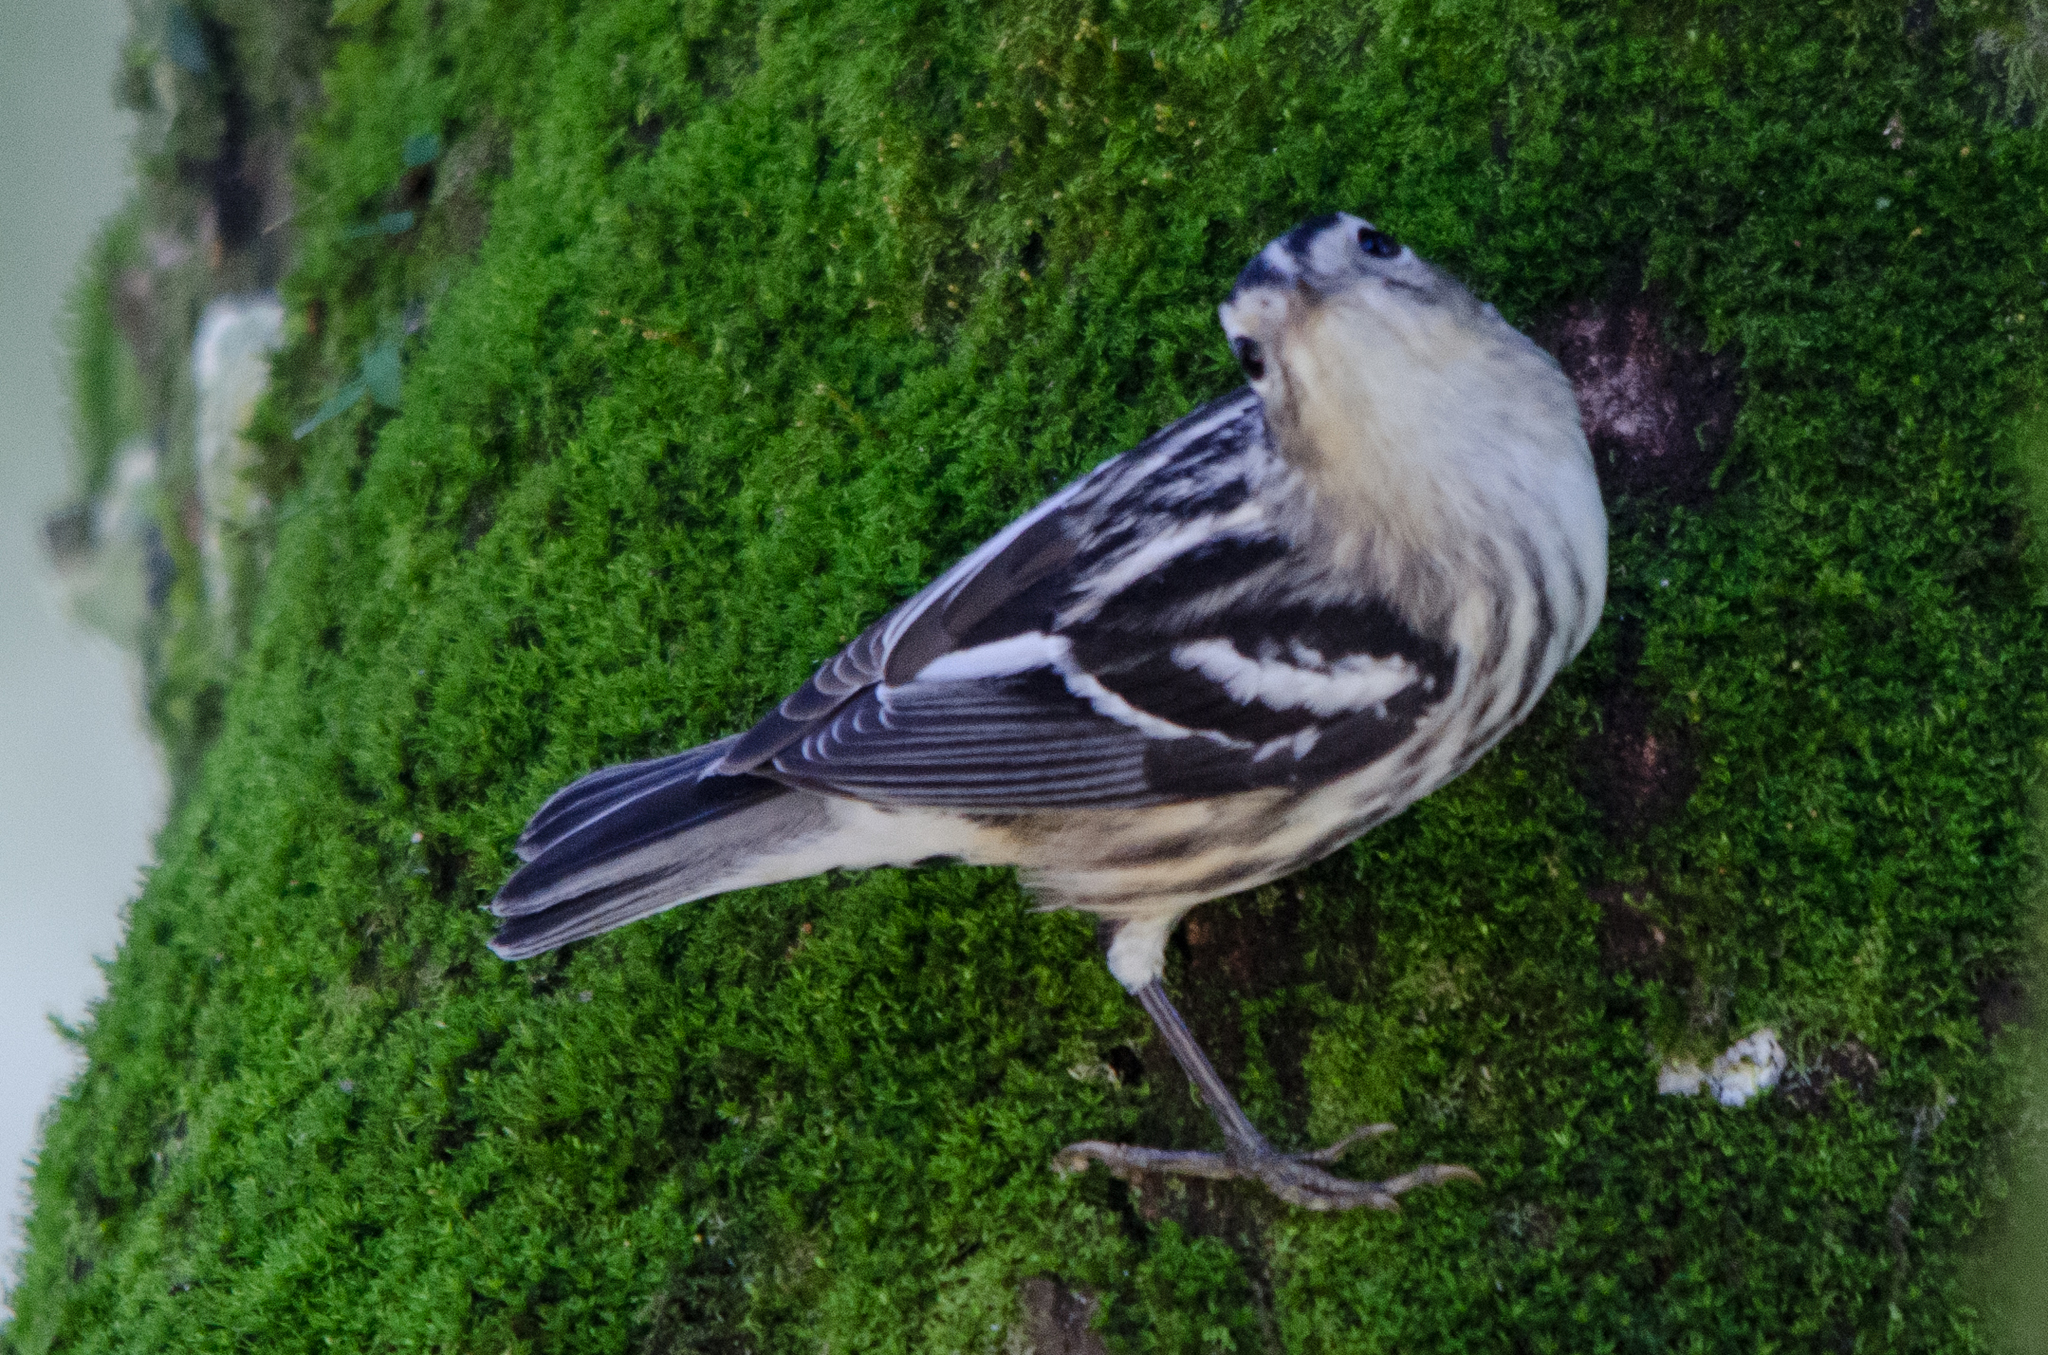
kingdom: Animalia
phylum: Chordata
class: Aves
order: Passeriformes
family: Parulidae
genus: Mniotilta
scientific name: Mniotilta varia
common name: Black-and-white warbler
